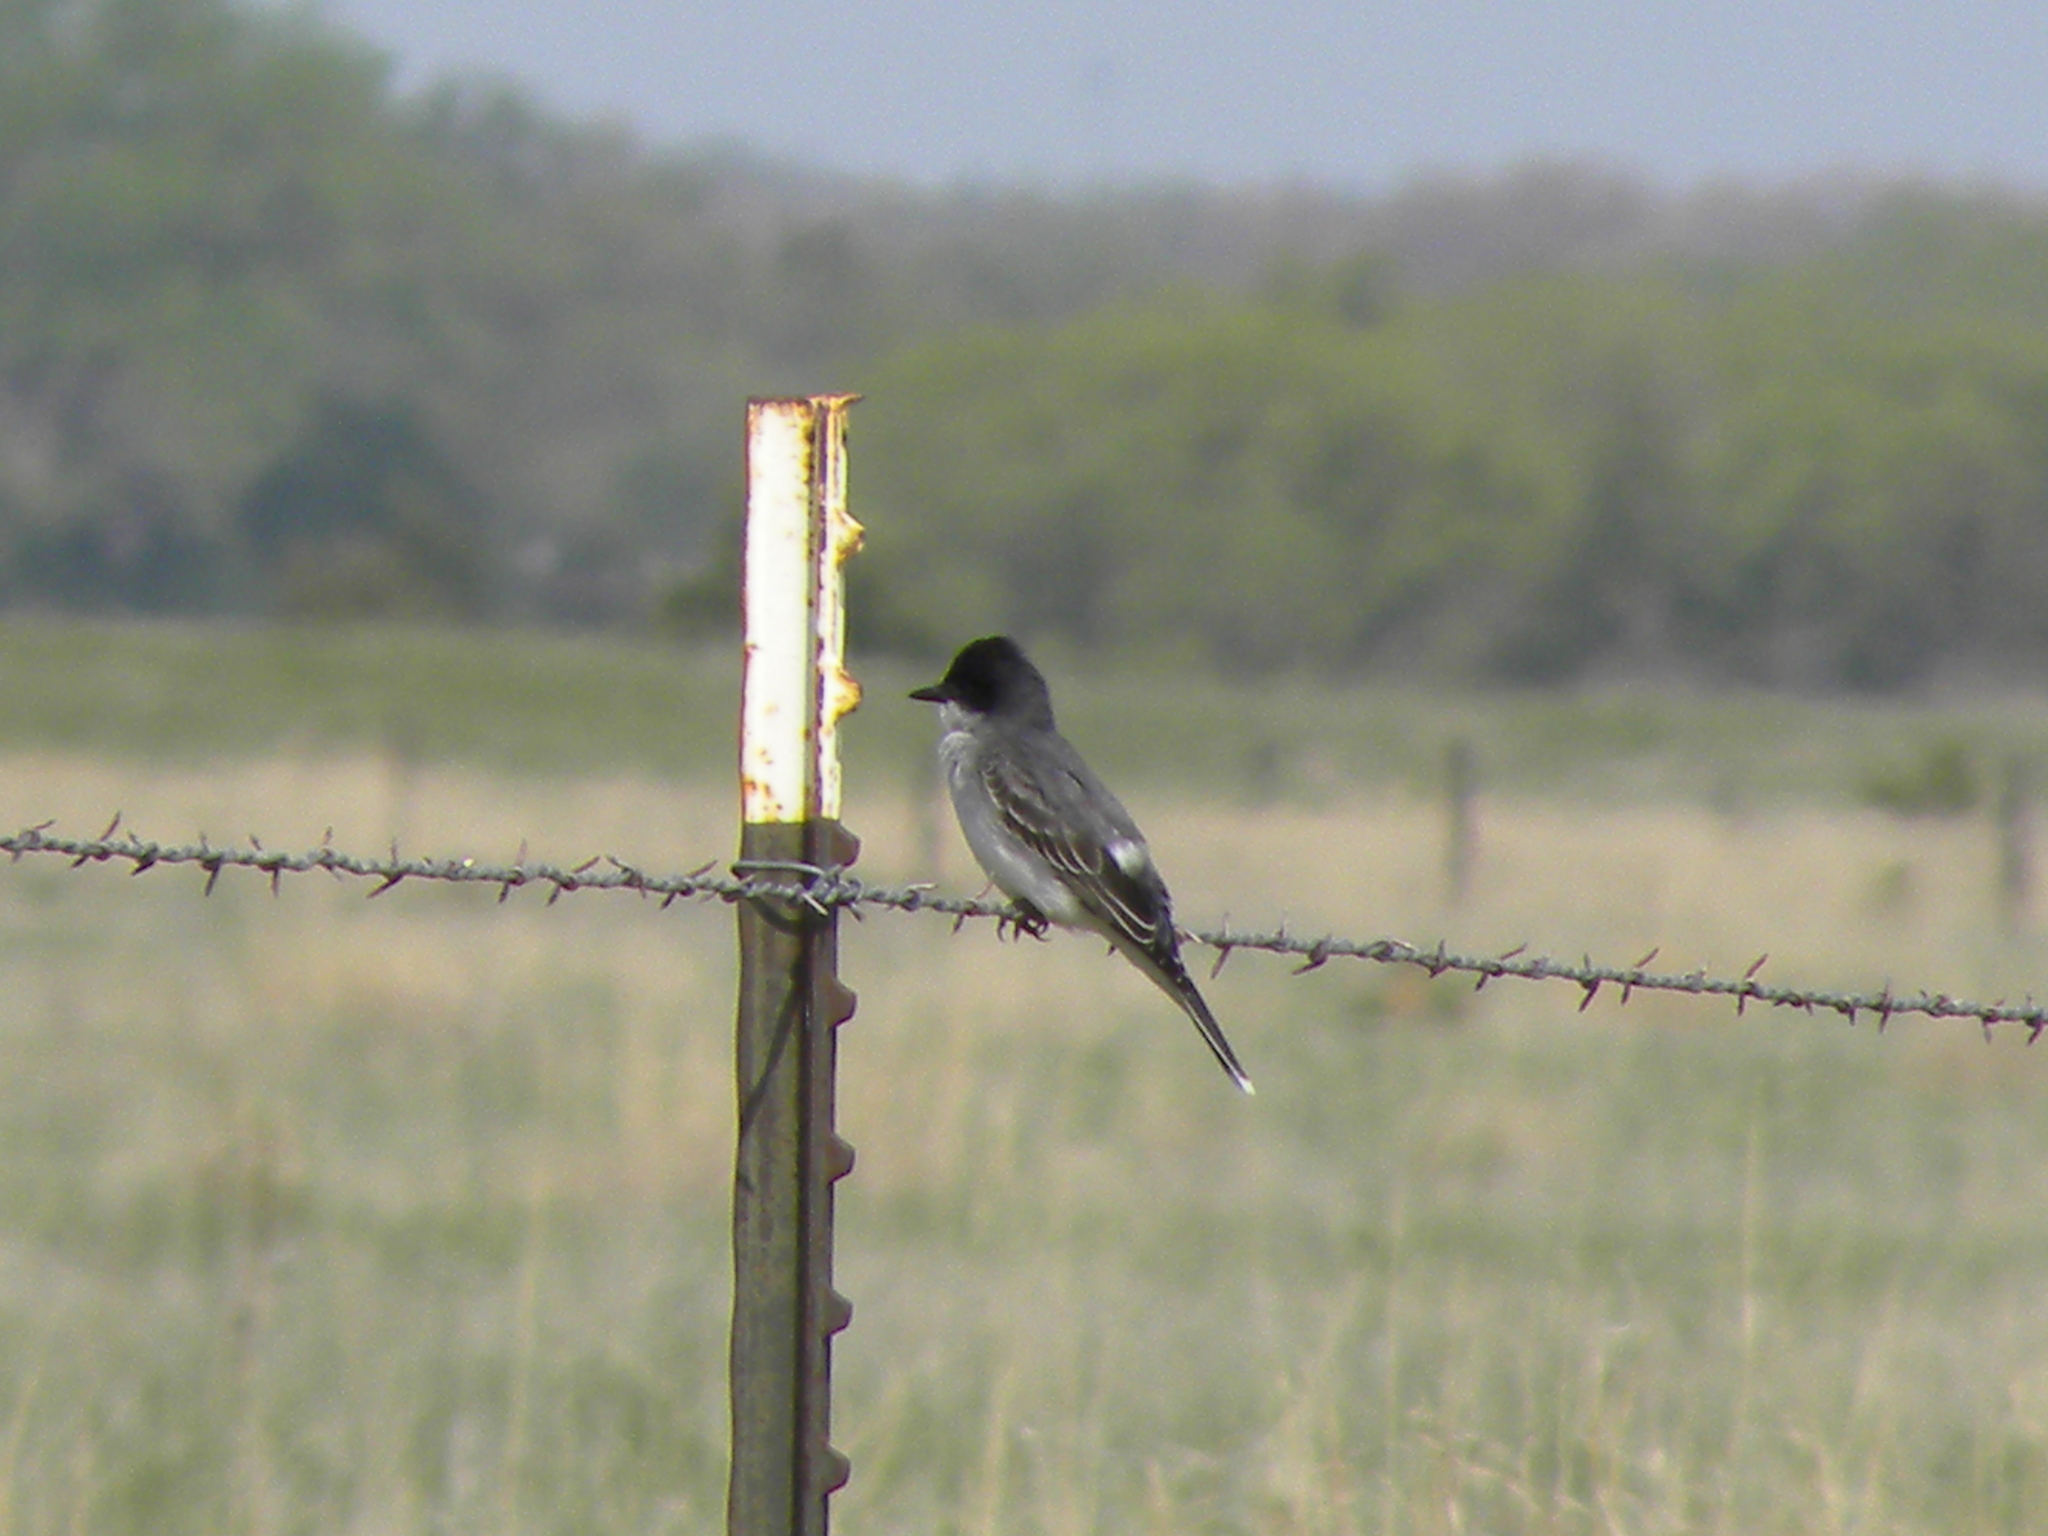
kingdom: Animalia
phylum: Chordata
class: Aves
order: Passeriformes
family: Tyrannidae
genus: Tyrannus
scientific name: Tyrannus tyrannus
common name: Eastern kingbird
